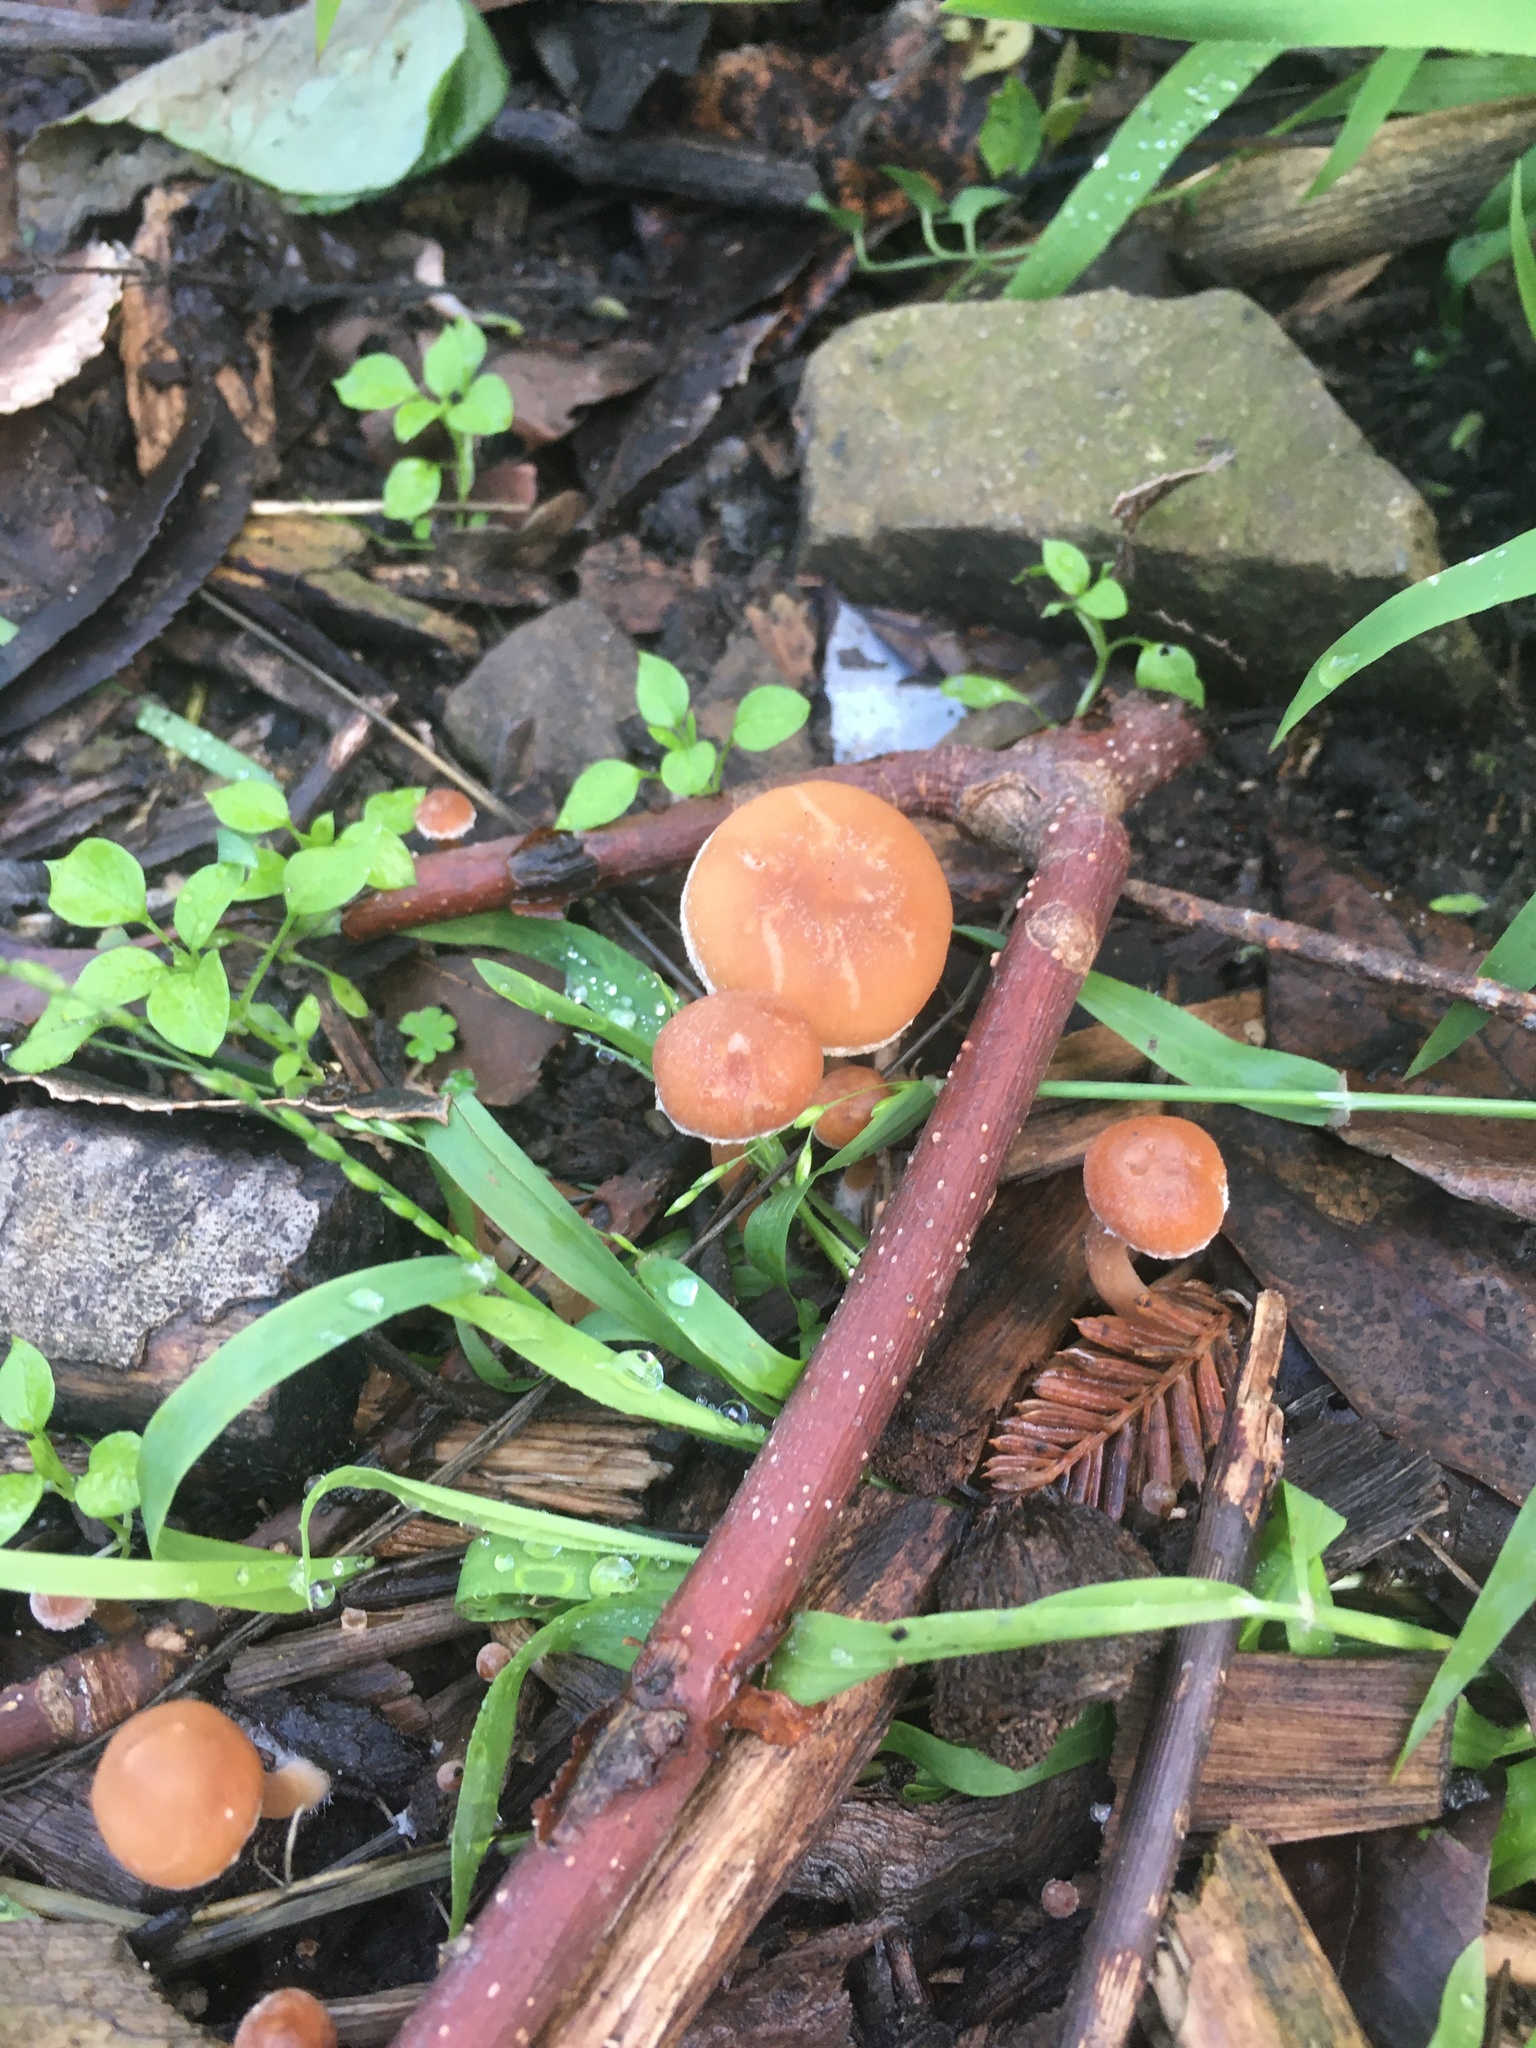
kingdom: Fungi
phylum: Basidiomycota
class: Agaricomycetes
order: Agaricales
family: Tubariaceae
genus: Tubaria
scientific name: Tubaria furfuracea
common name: Scurfy twiglet
